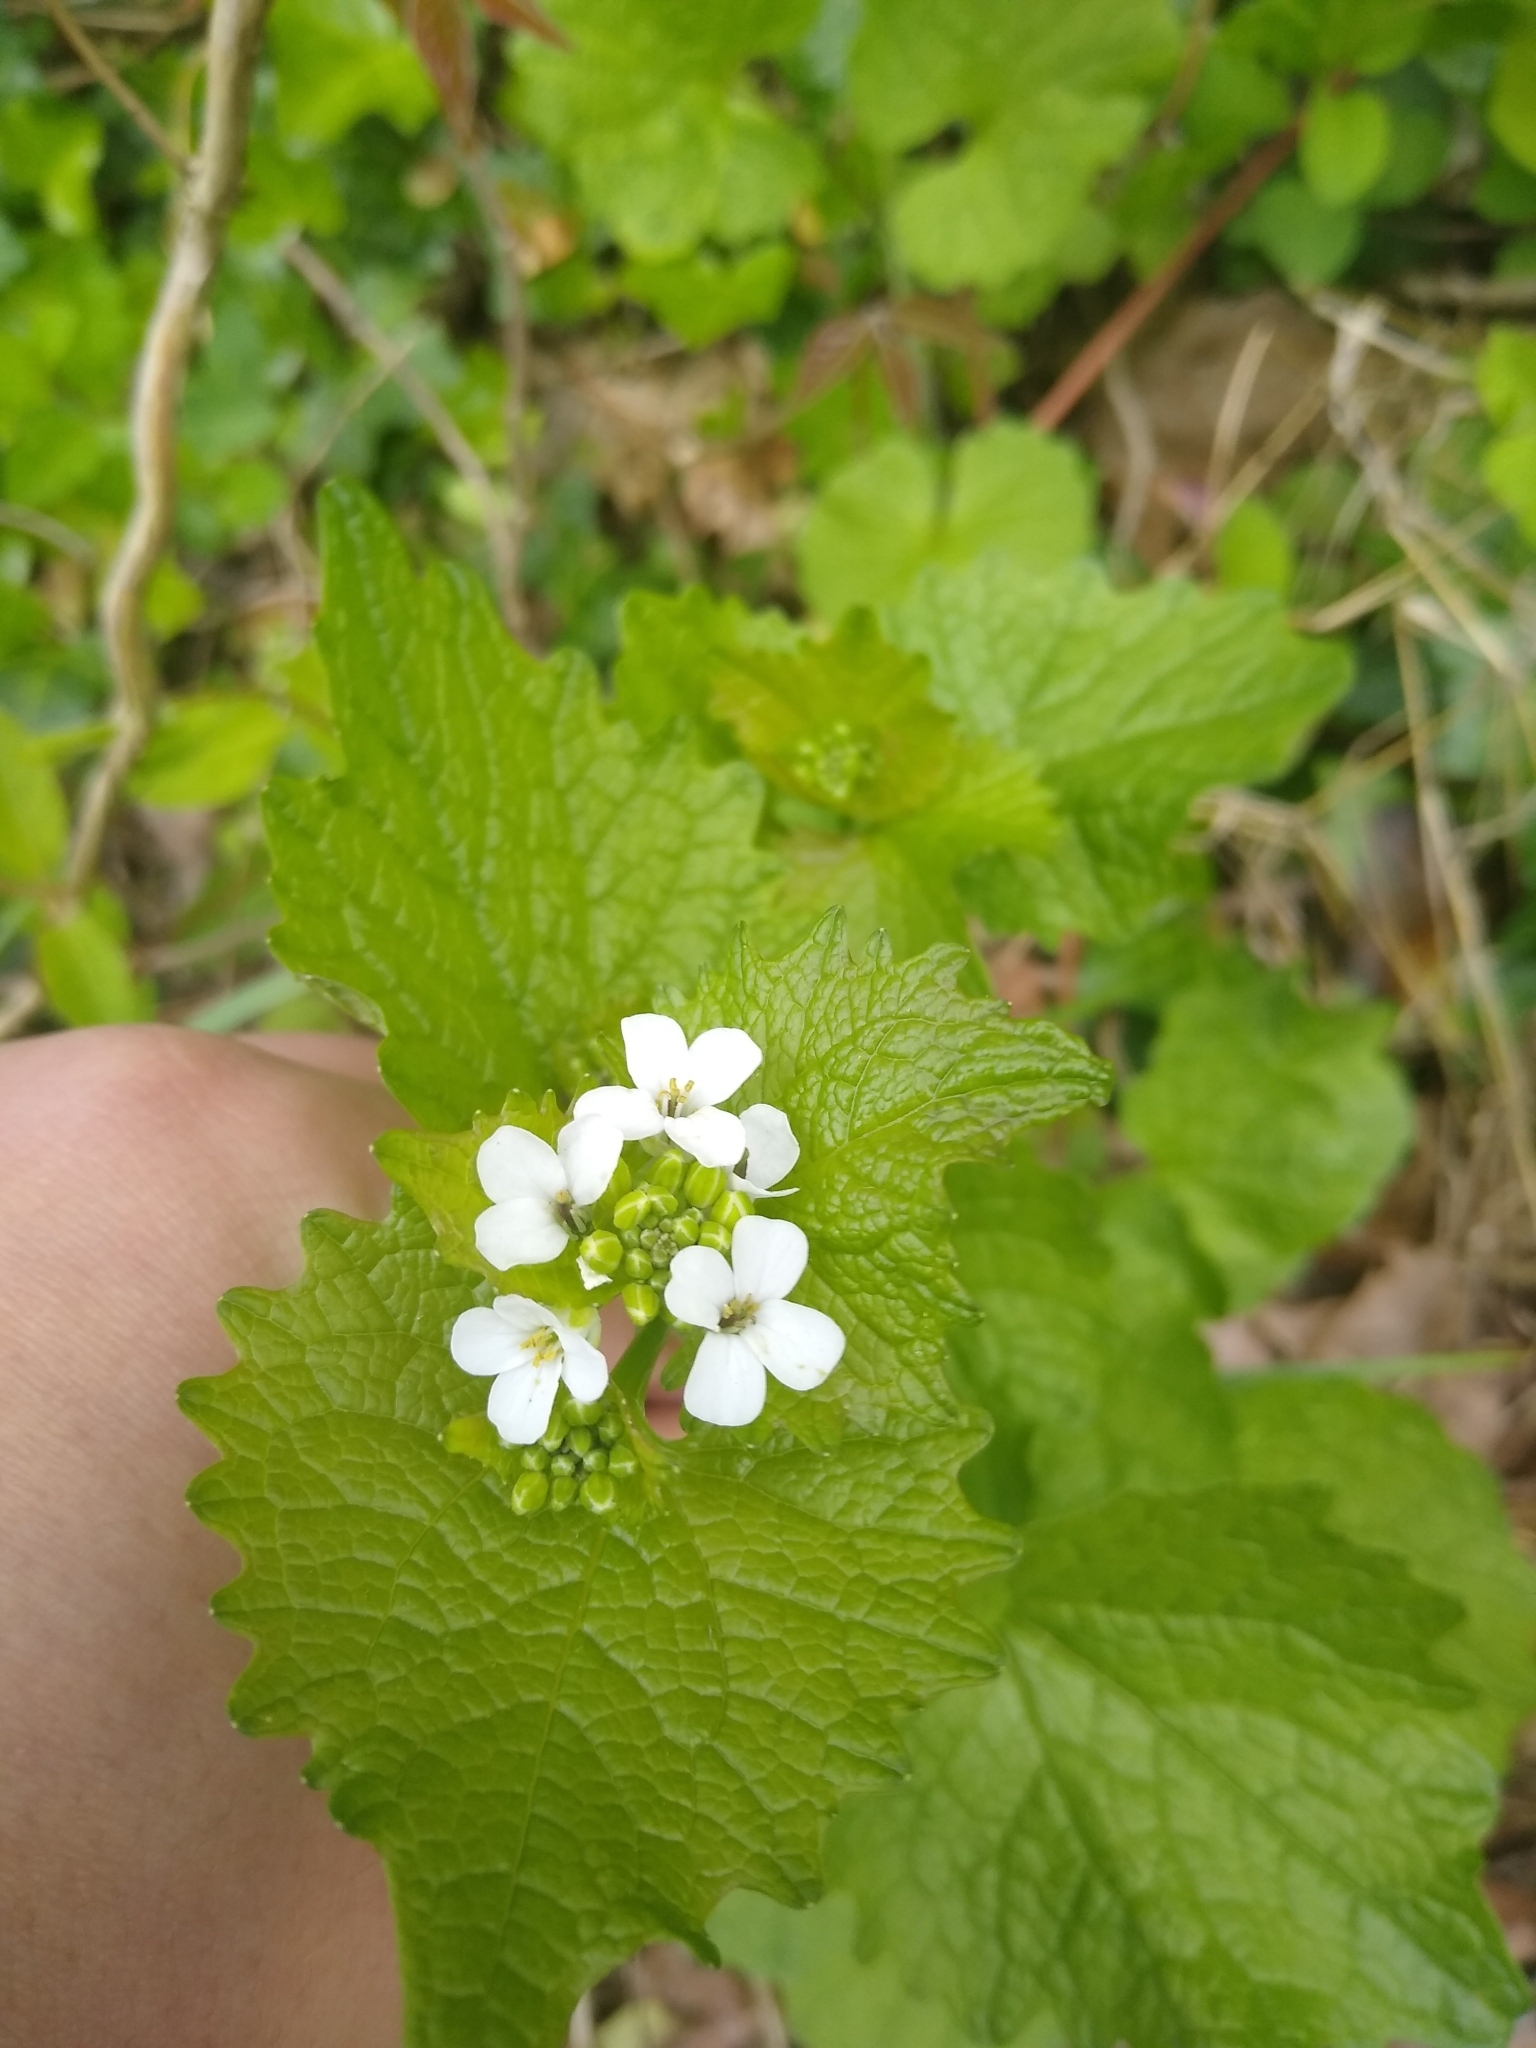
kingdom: Plantae
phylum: Tracheophyta
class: Magnoliopsida
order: Brassicales
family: Brassicaceae
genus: Alliaria
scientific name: Alliaria petiolata
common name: Garlic mustard
